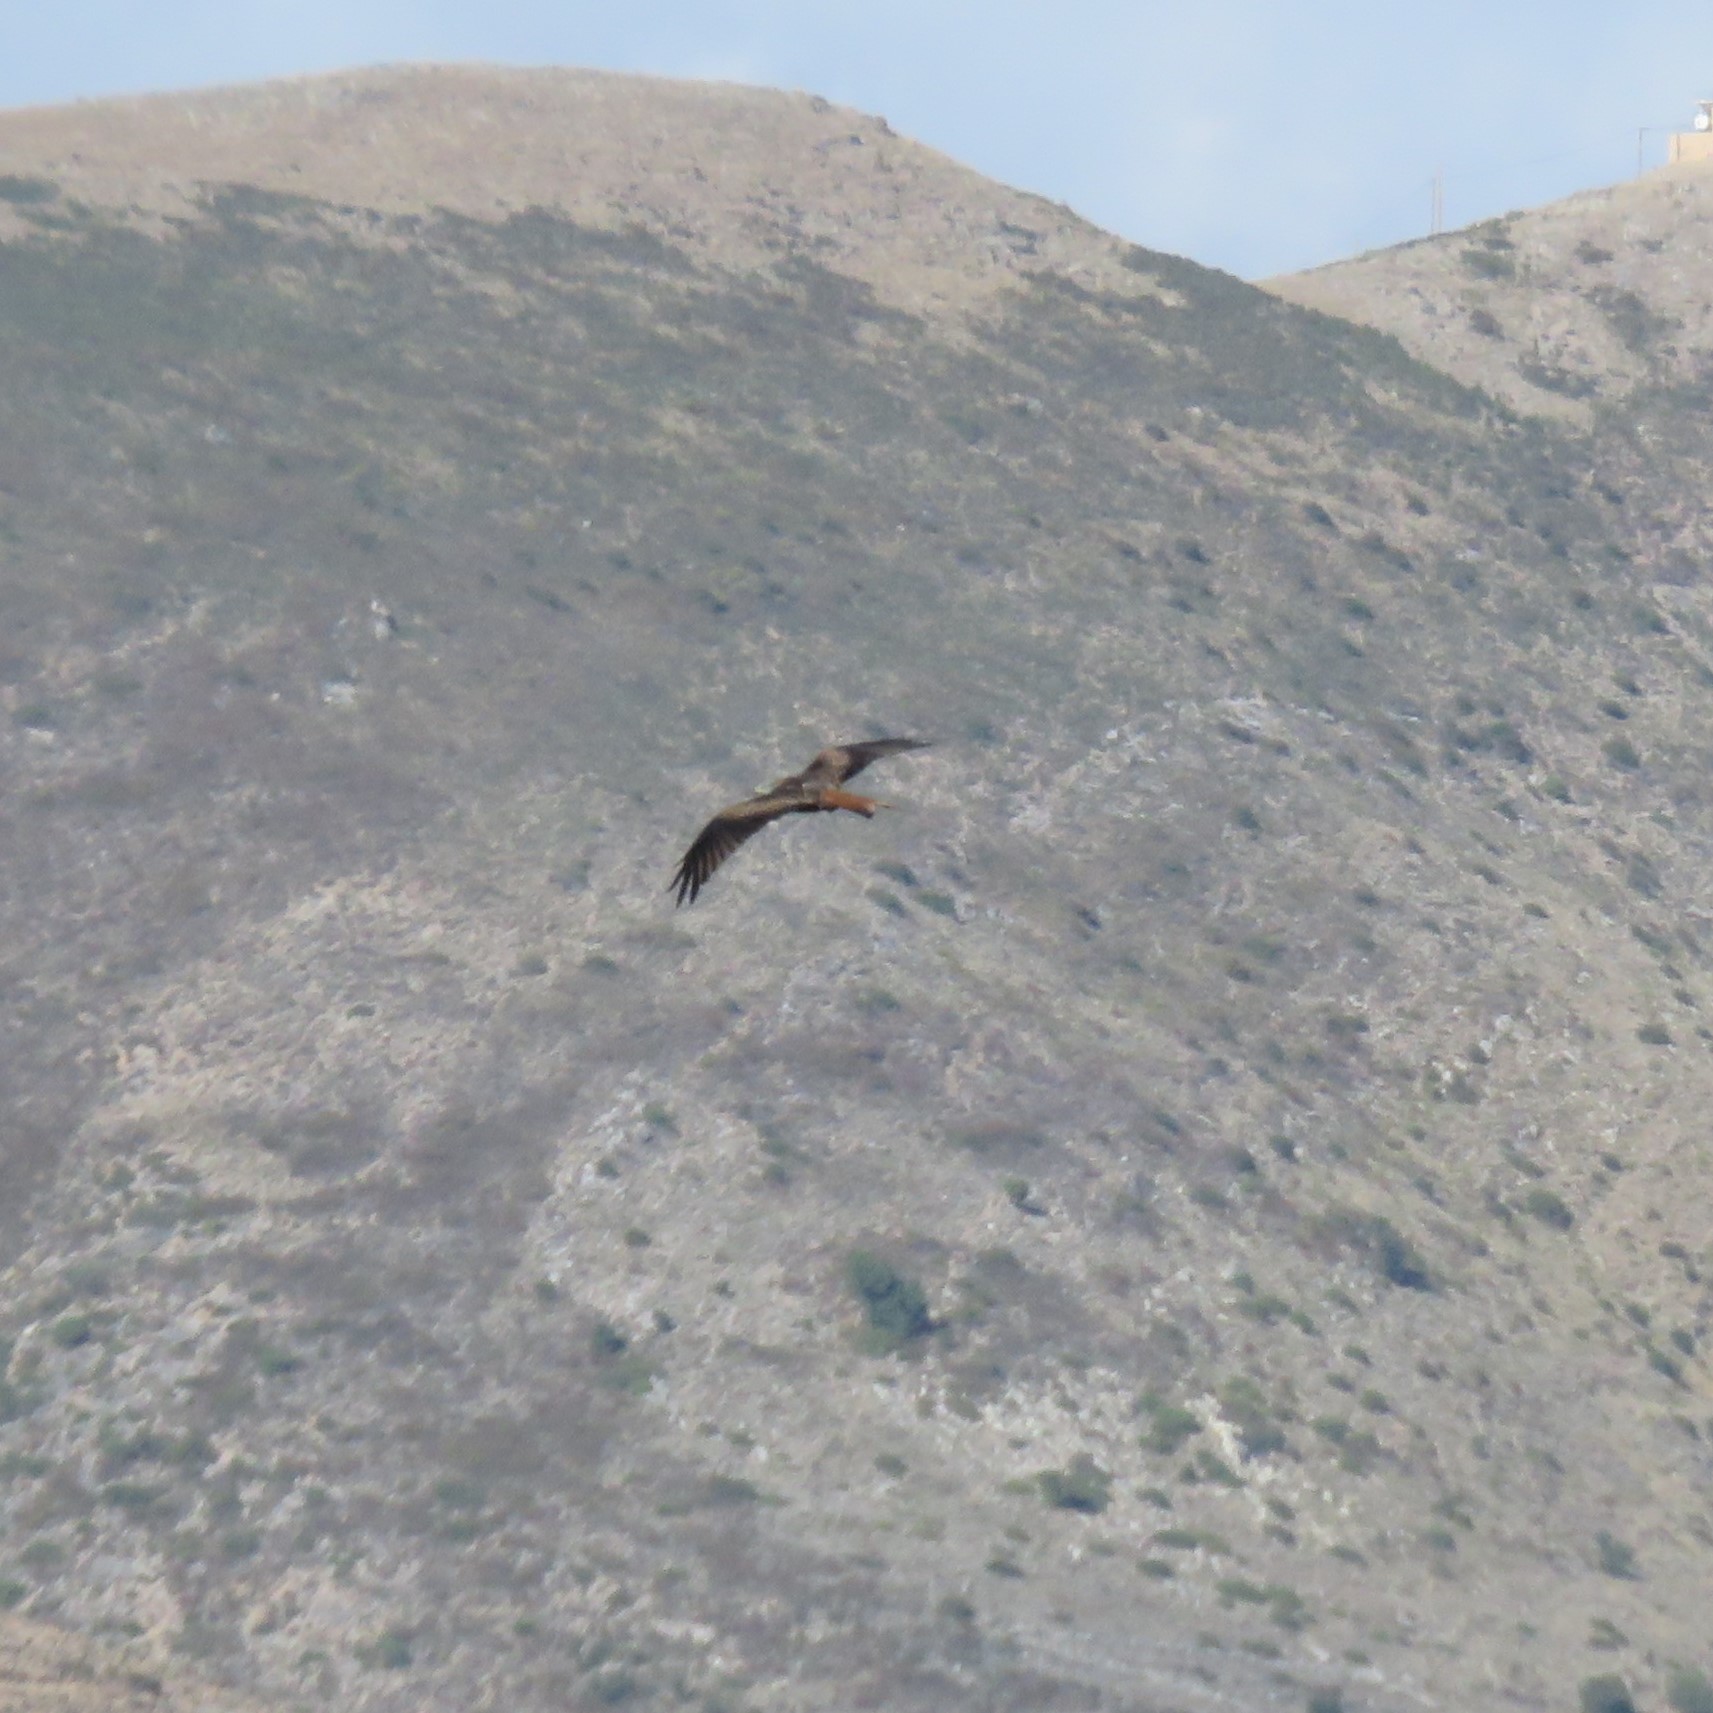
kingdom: Animalia
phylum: Chordata
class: Aves
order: Accipitriformes
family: Accipitridae
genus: Milvus
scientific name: Milvus milvus
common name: Red kite
